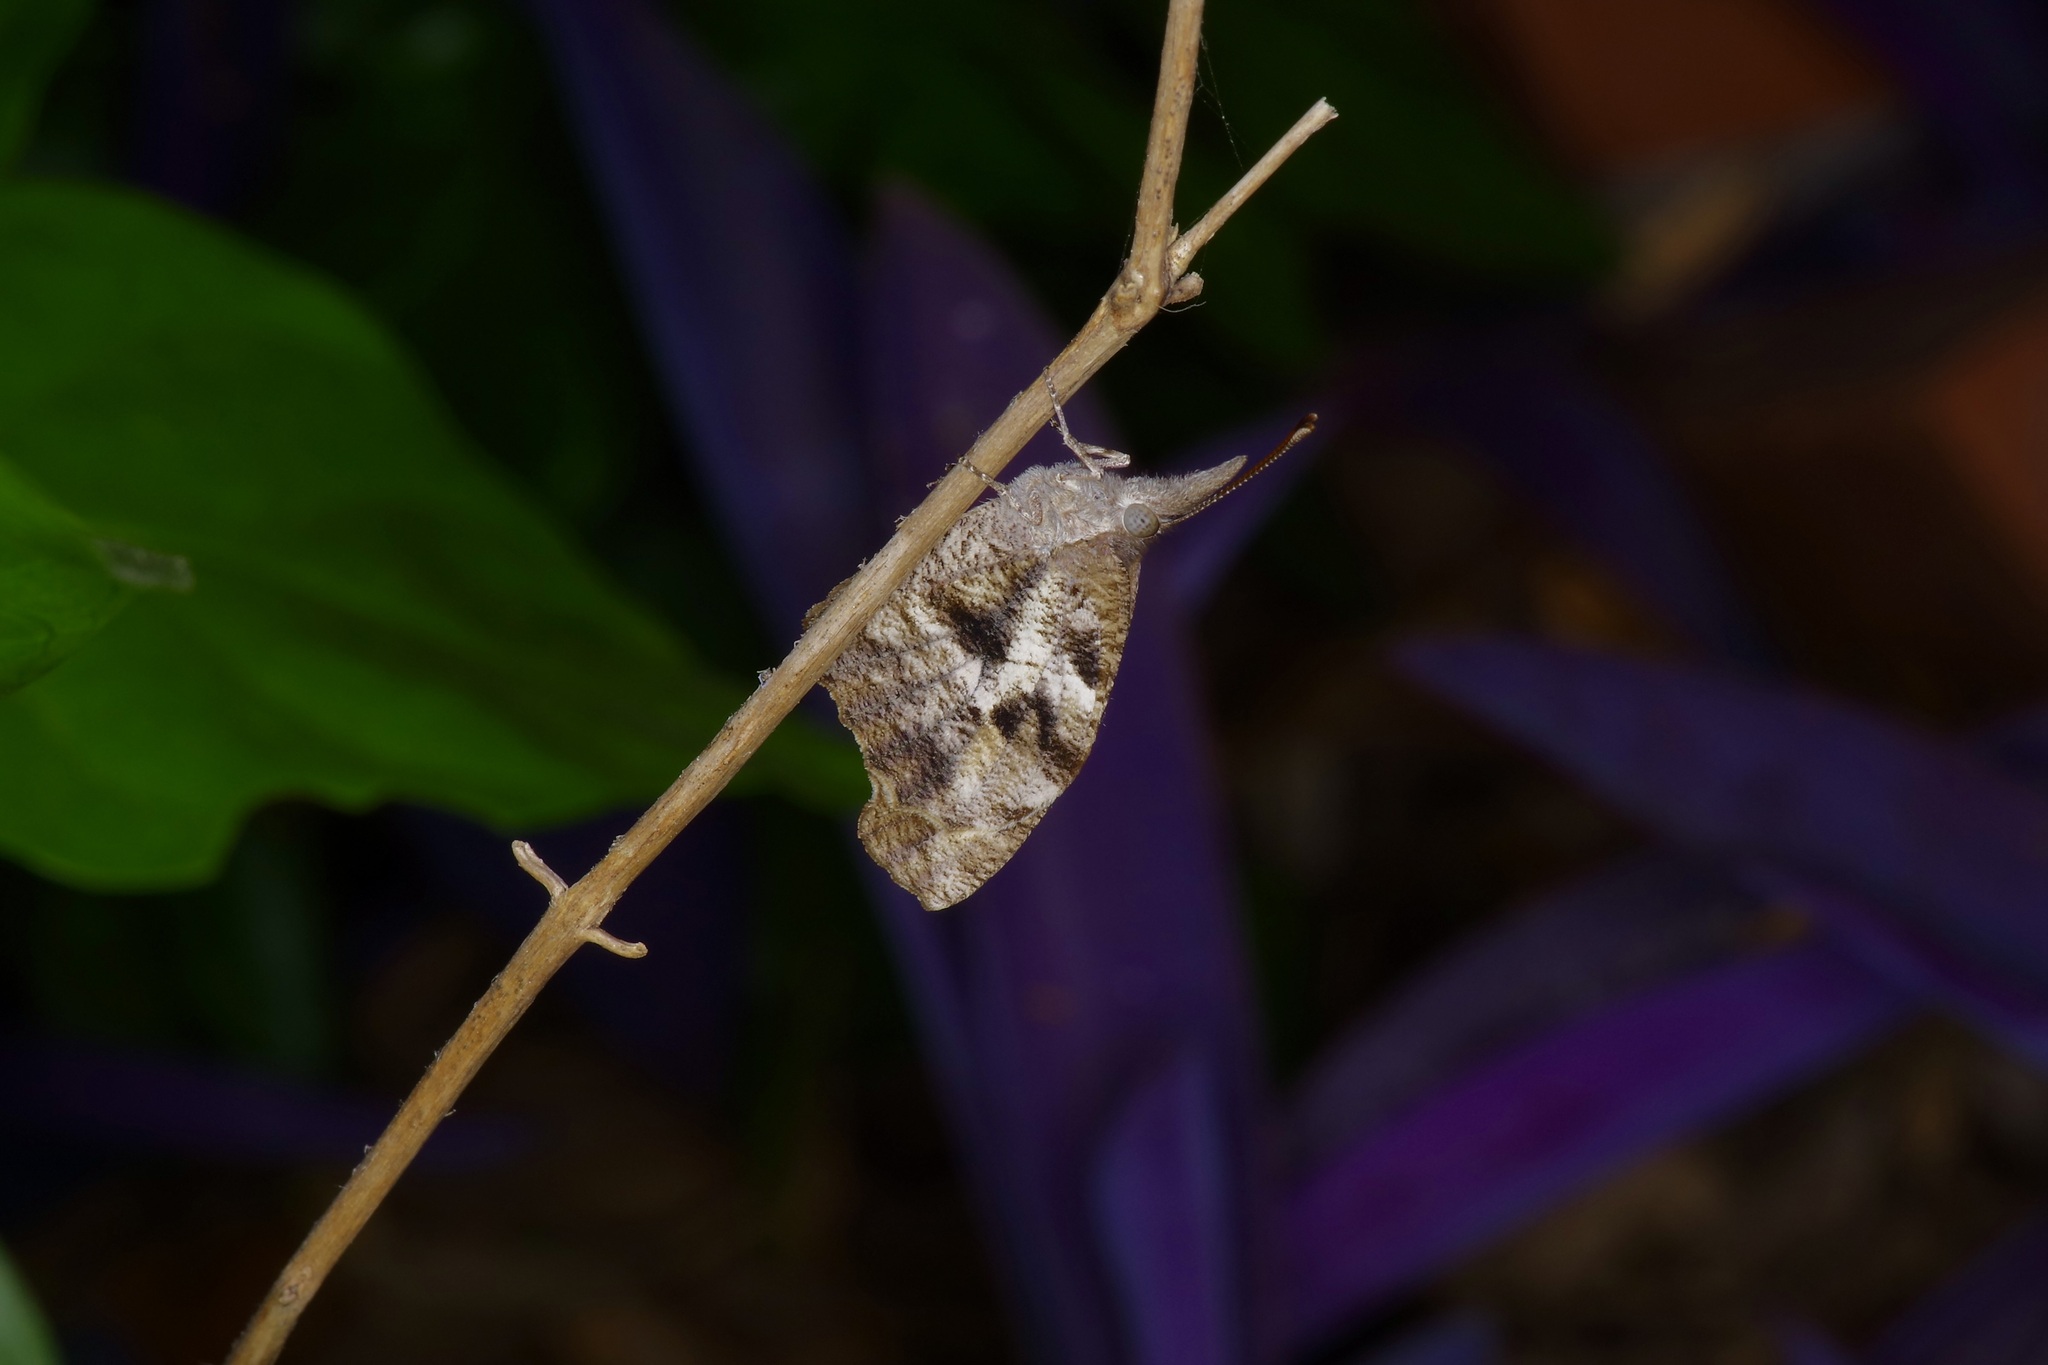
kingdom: Animalia
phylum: Arthropoda
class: Insecta
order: Lepidoptera
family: Nymphalidae
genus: Libytheana
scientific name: Libytheana carinenta
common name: American snout
